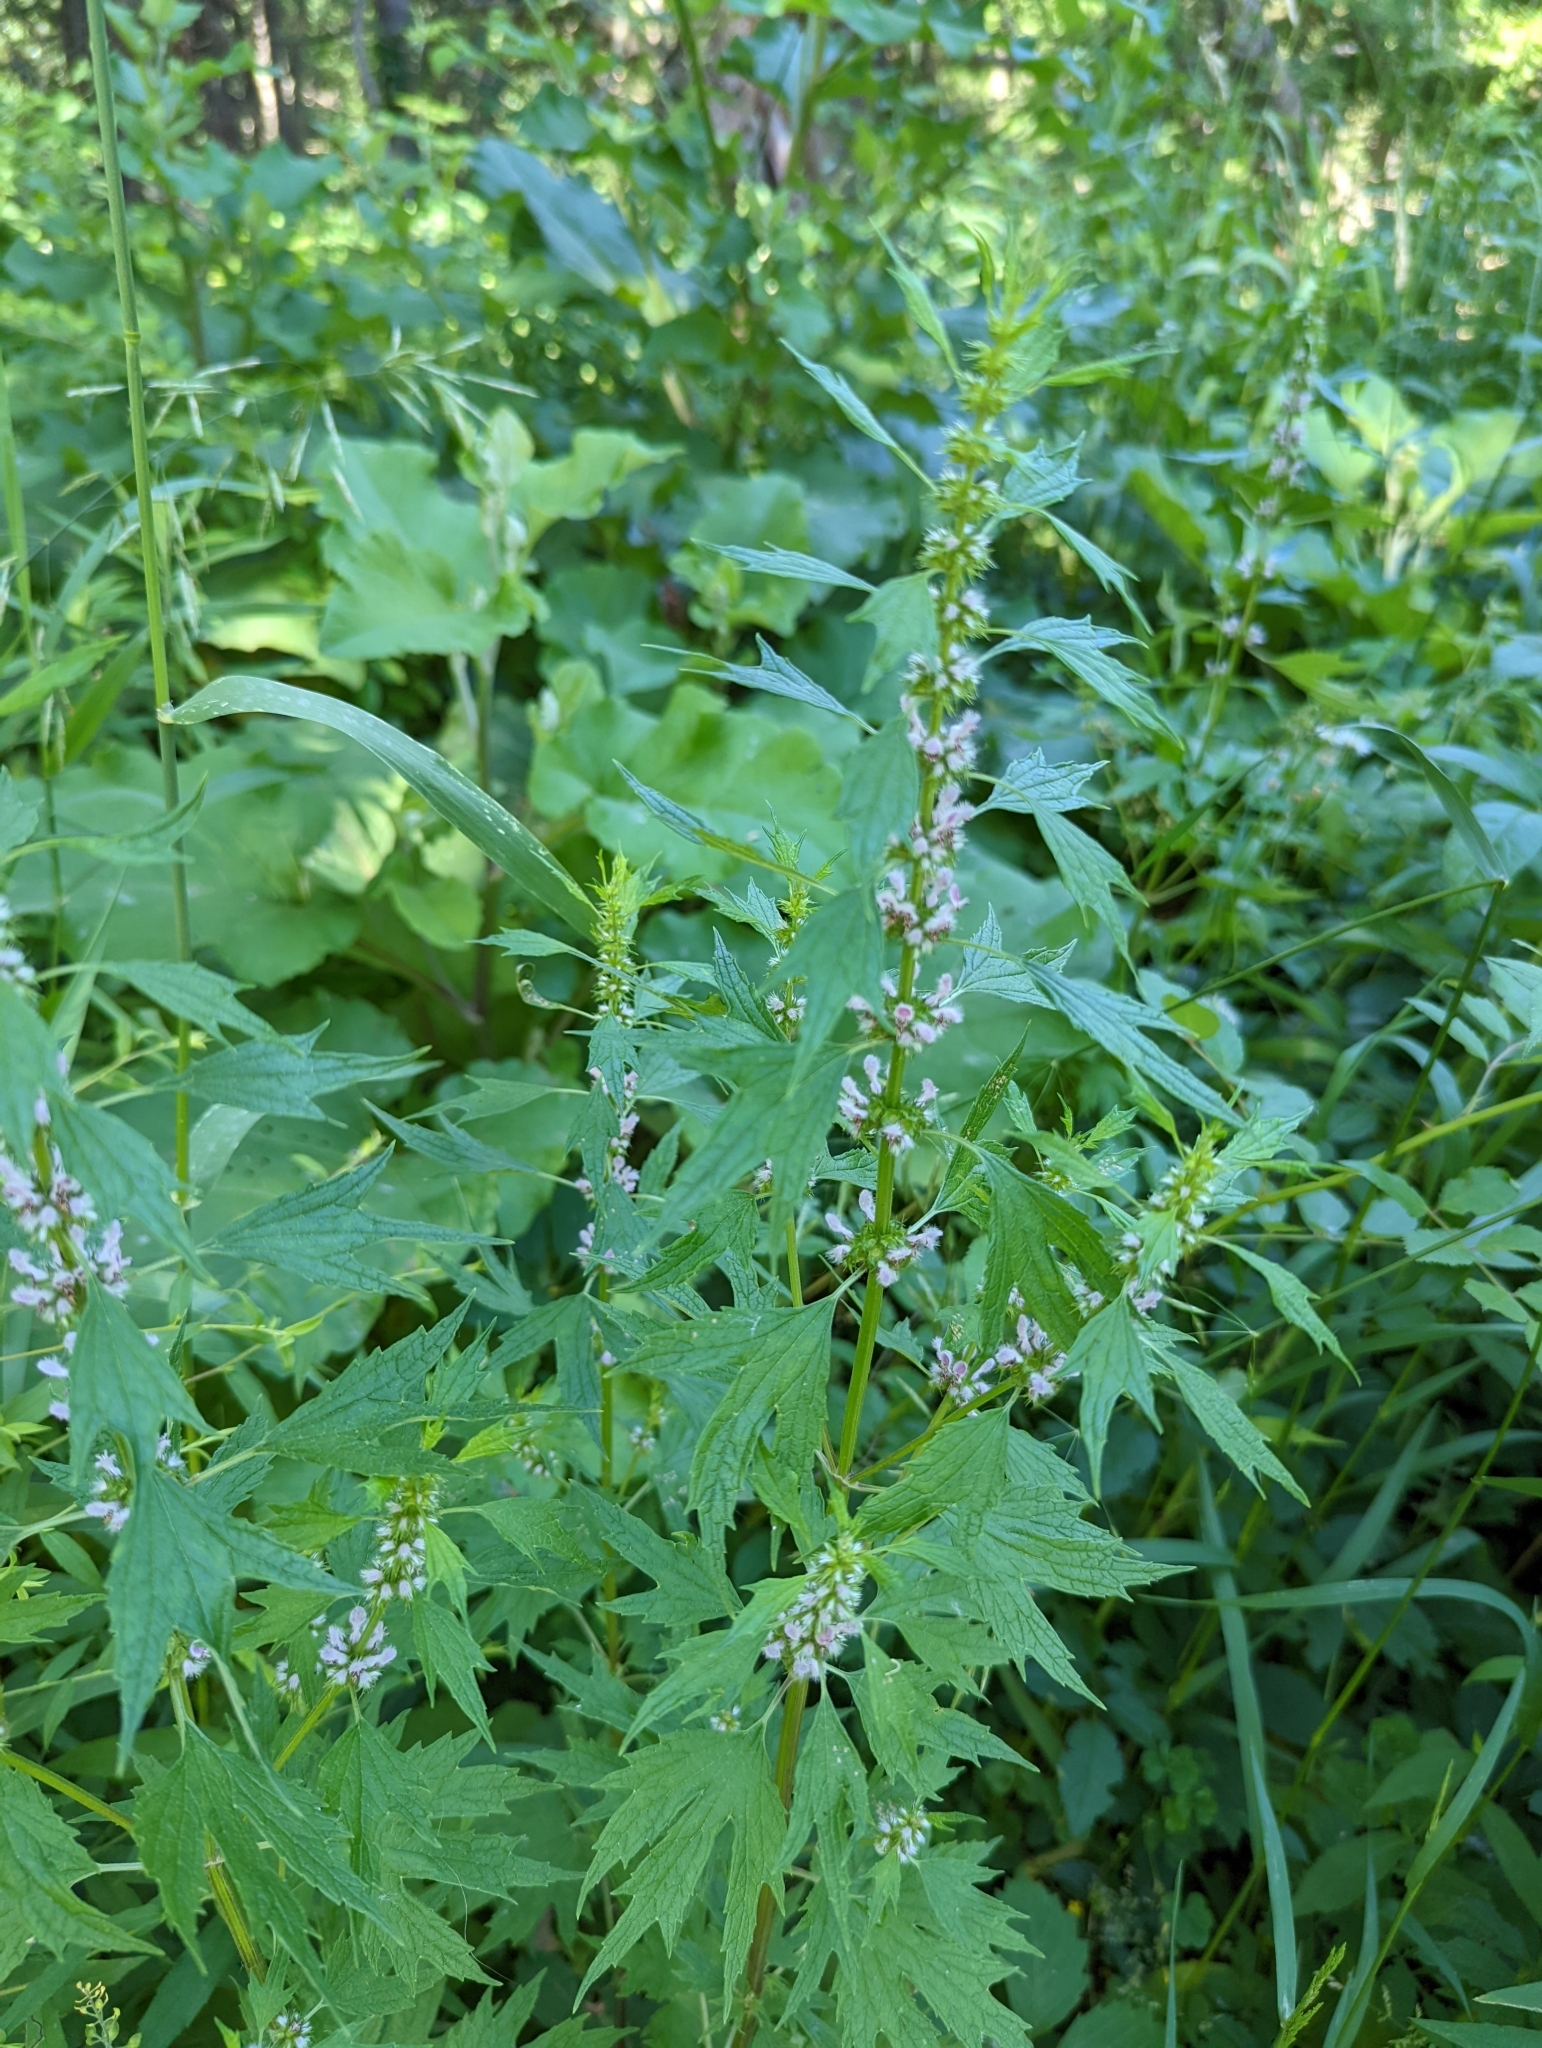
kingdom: Plantae
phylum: Tracheophyta
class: Magnoliopsida
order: Lamiales
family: Lamiaceae
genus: Leonurus
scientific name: Leonurus cardiaca
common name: Motherwort
